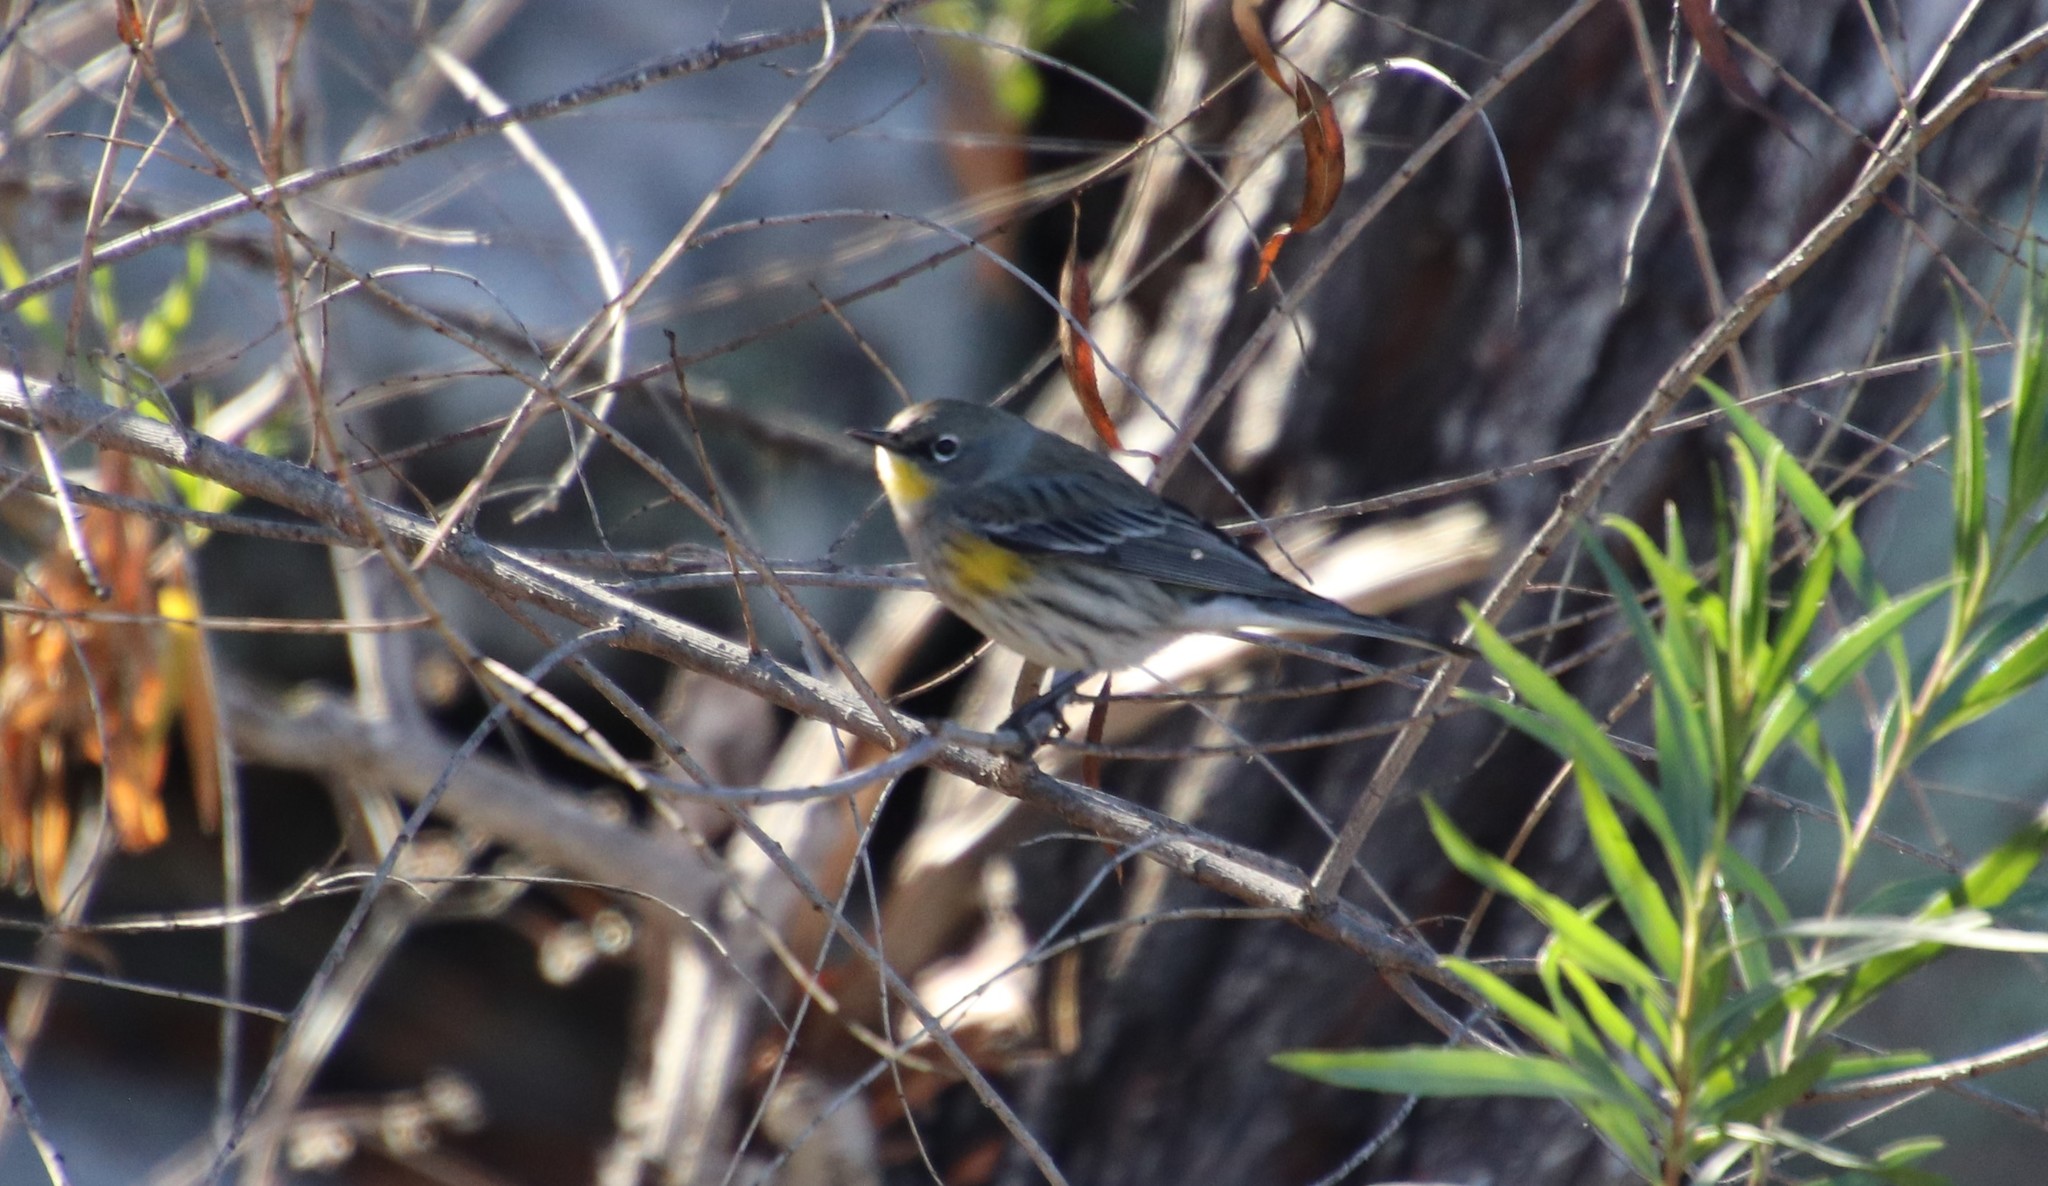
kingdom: Animalia
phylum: Chordata
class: Aves
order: Passeriformes
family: Parulidae
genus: Setophaga
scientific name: Setophaga auduboni
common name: Audubon's warbler
